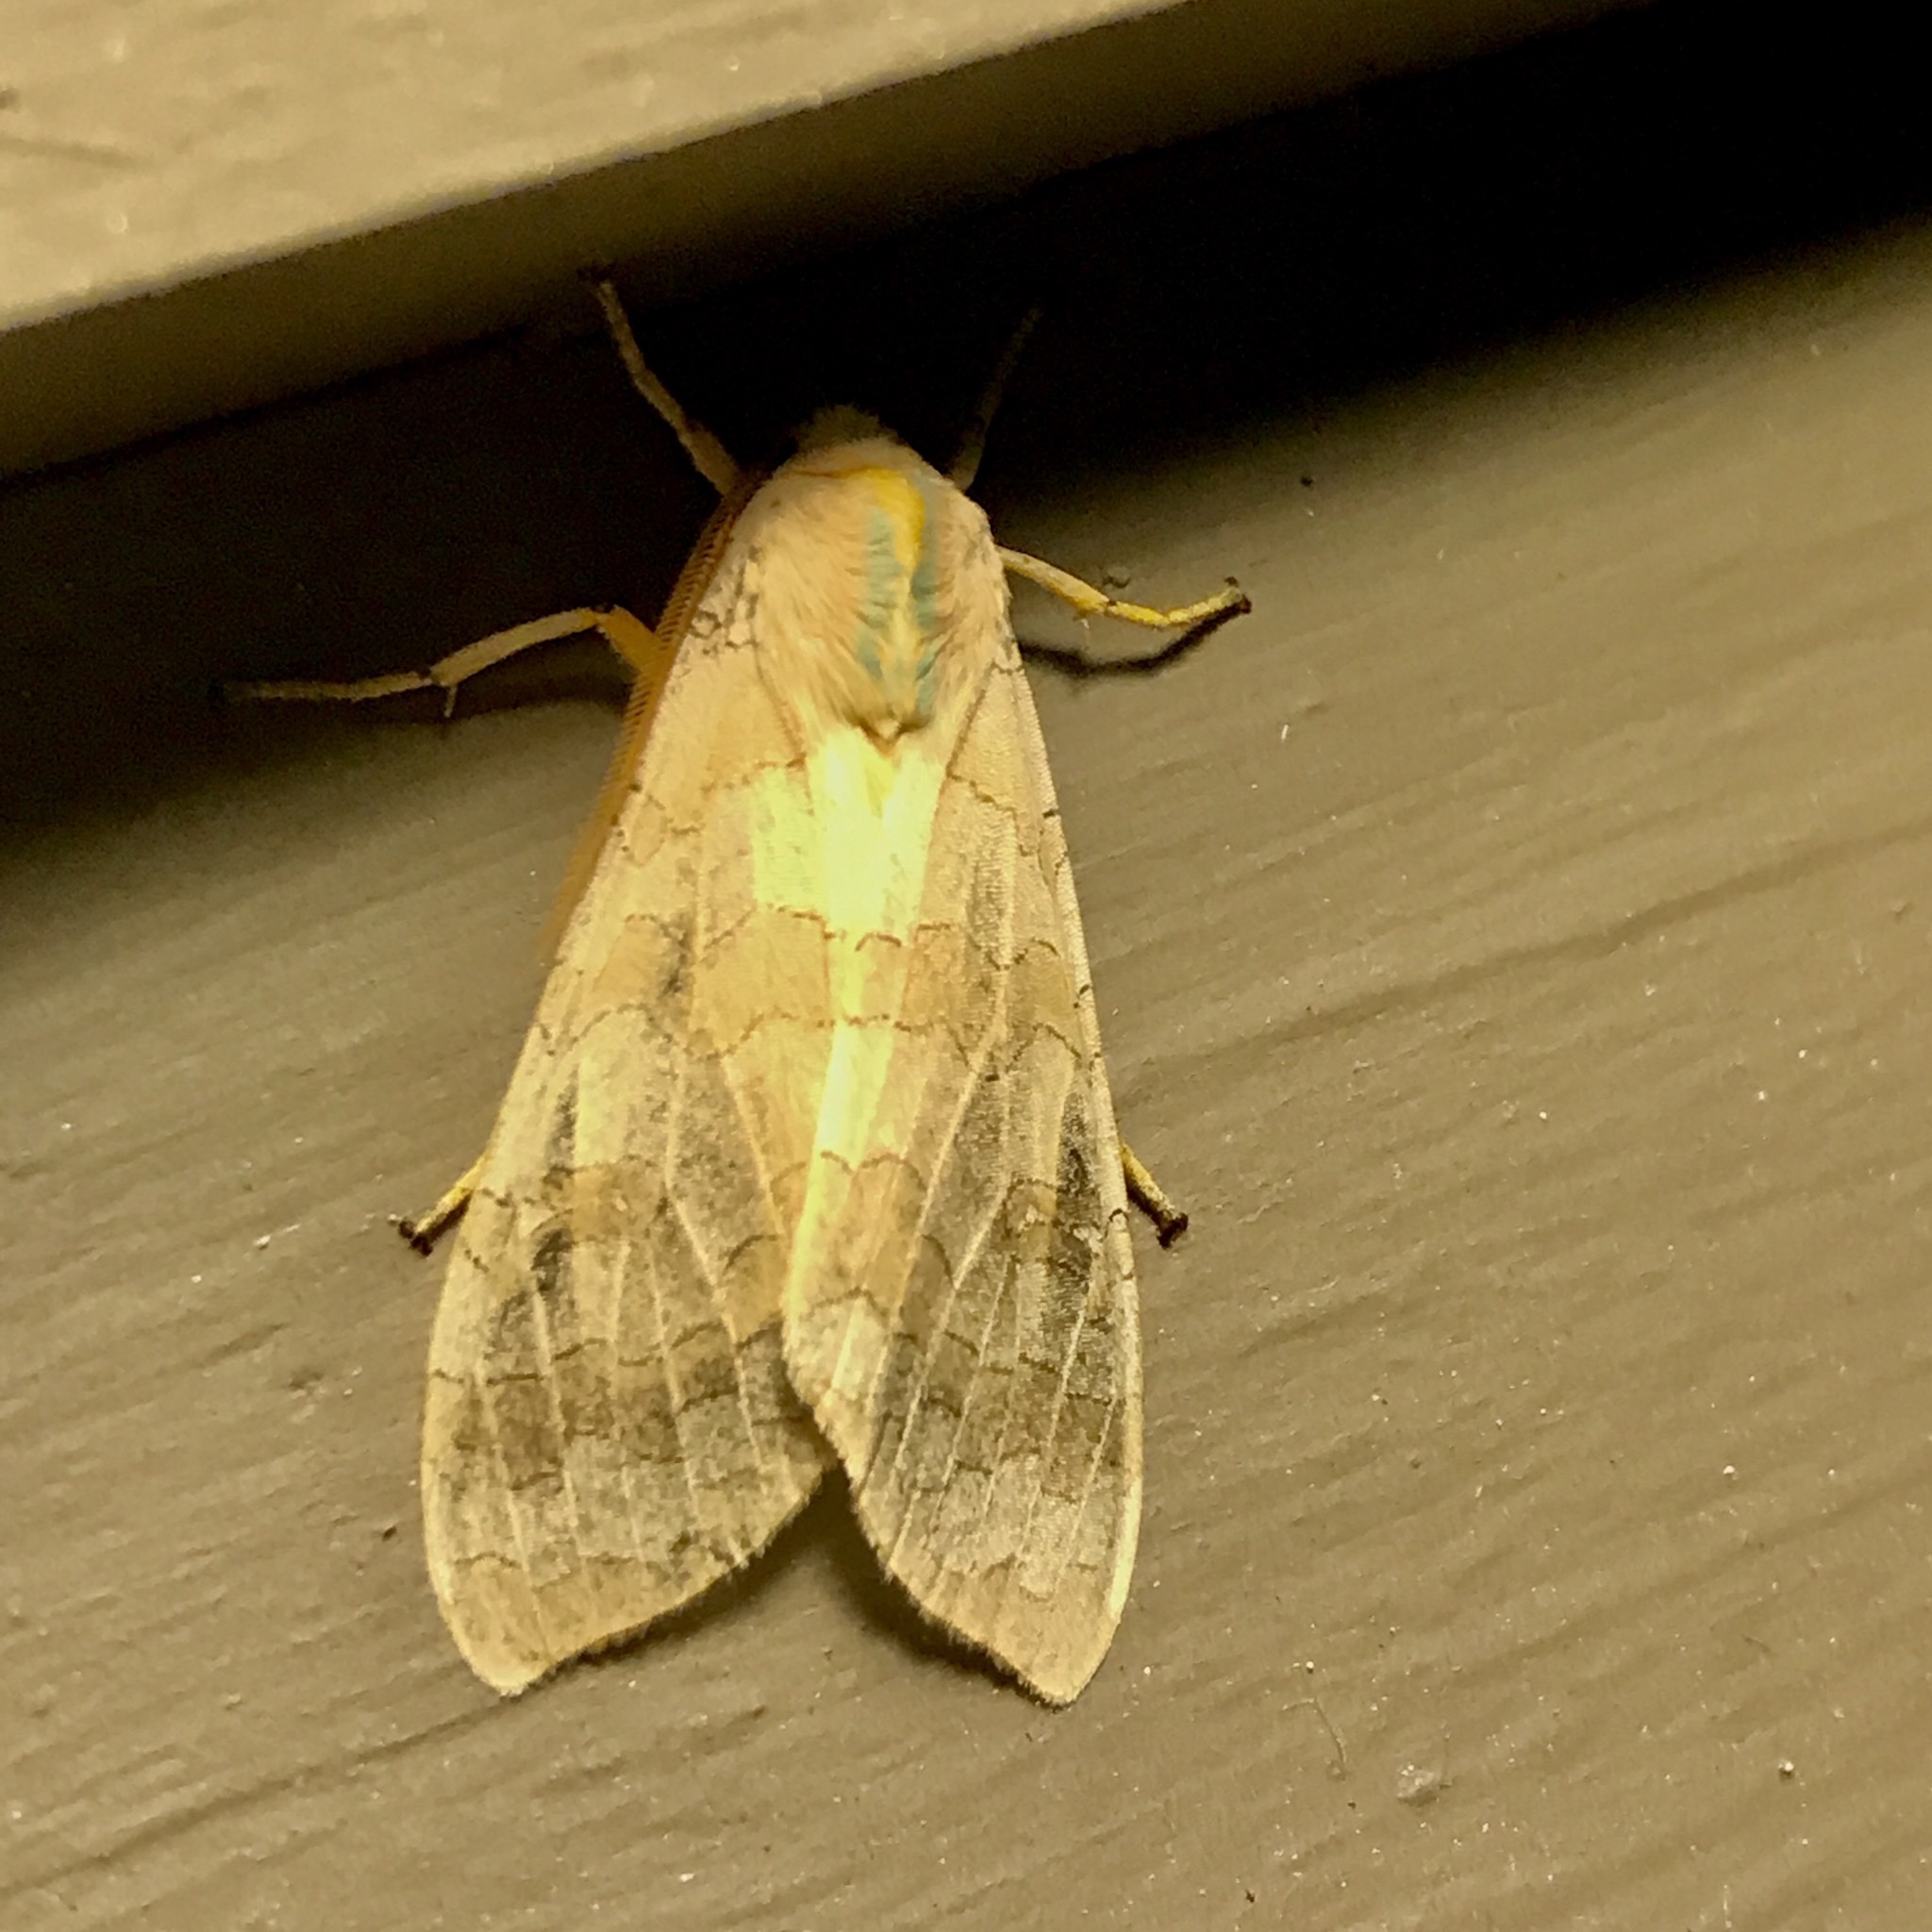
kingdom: Animalia
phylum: Arthropoda
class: Insecta
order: Lepidoptera
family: Erebidae
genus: Halysidota
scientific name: Halysidota
